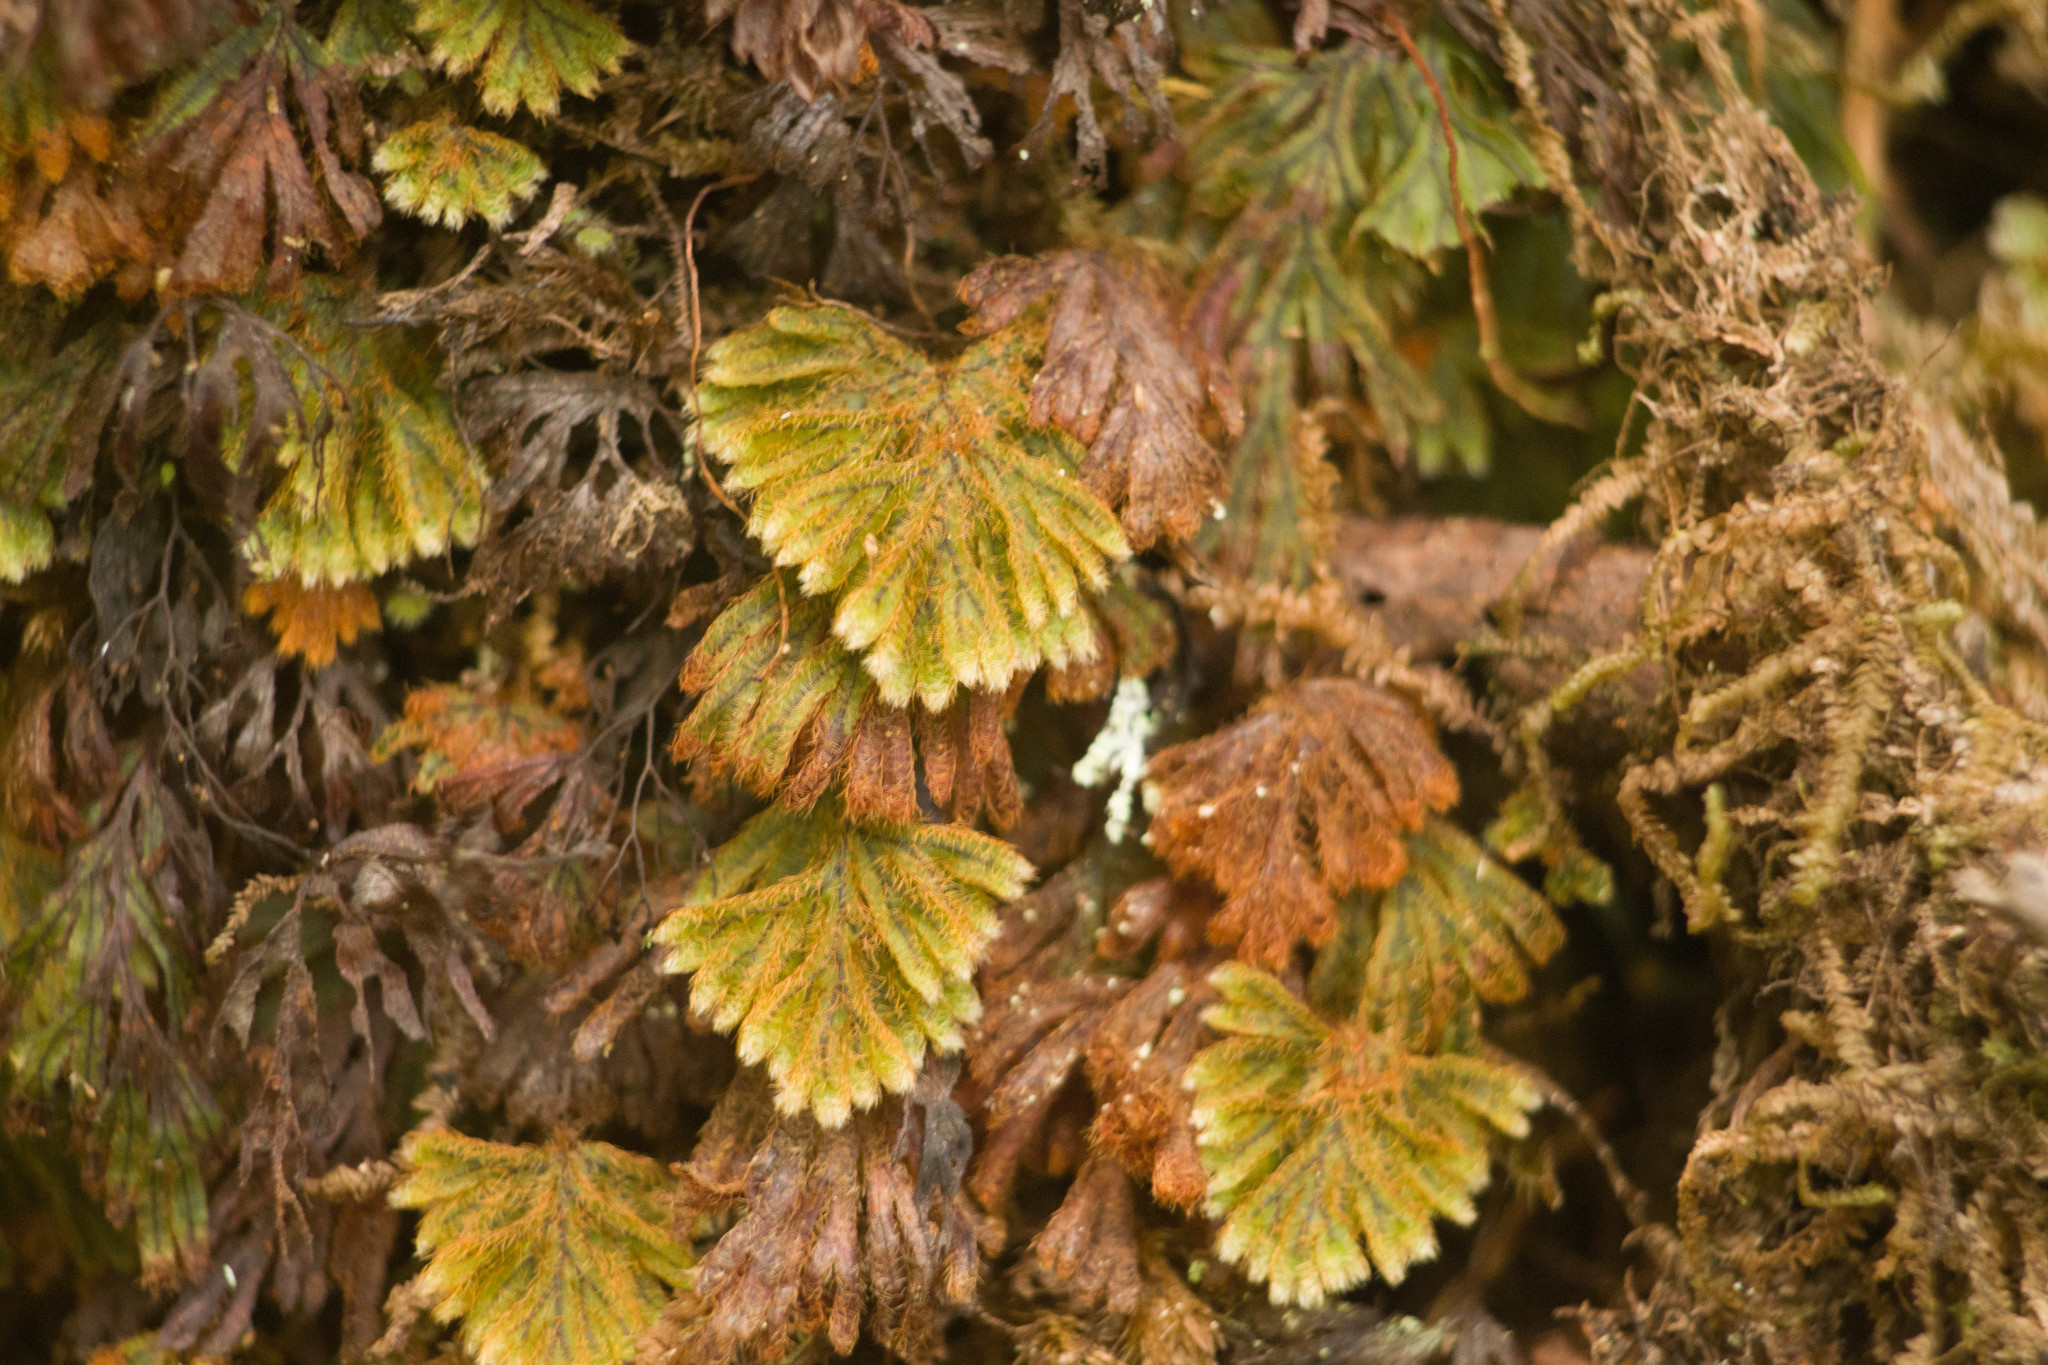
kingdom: Plantae
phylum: Tracheophyta
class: Polypodiopsida
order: Hymenophyllales
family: Hymenophyllaceae
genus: Hymenophyllum
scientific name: Hymenophyllum obtusum
